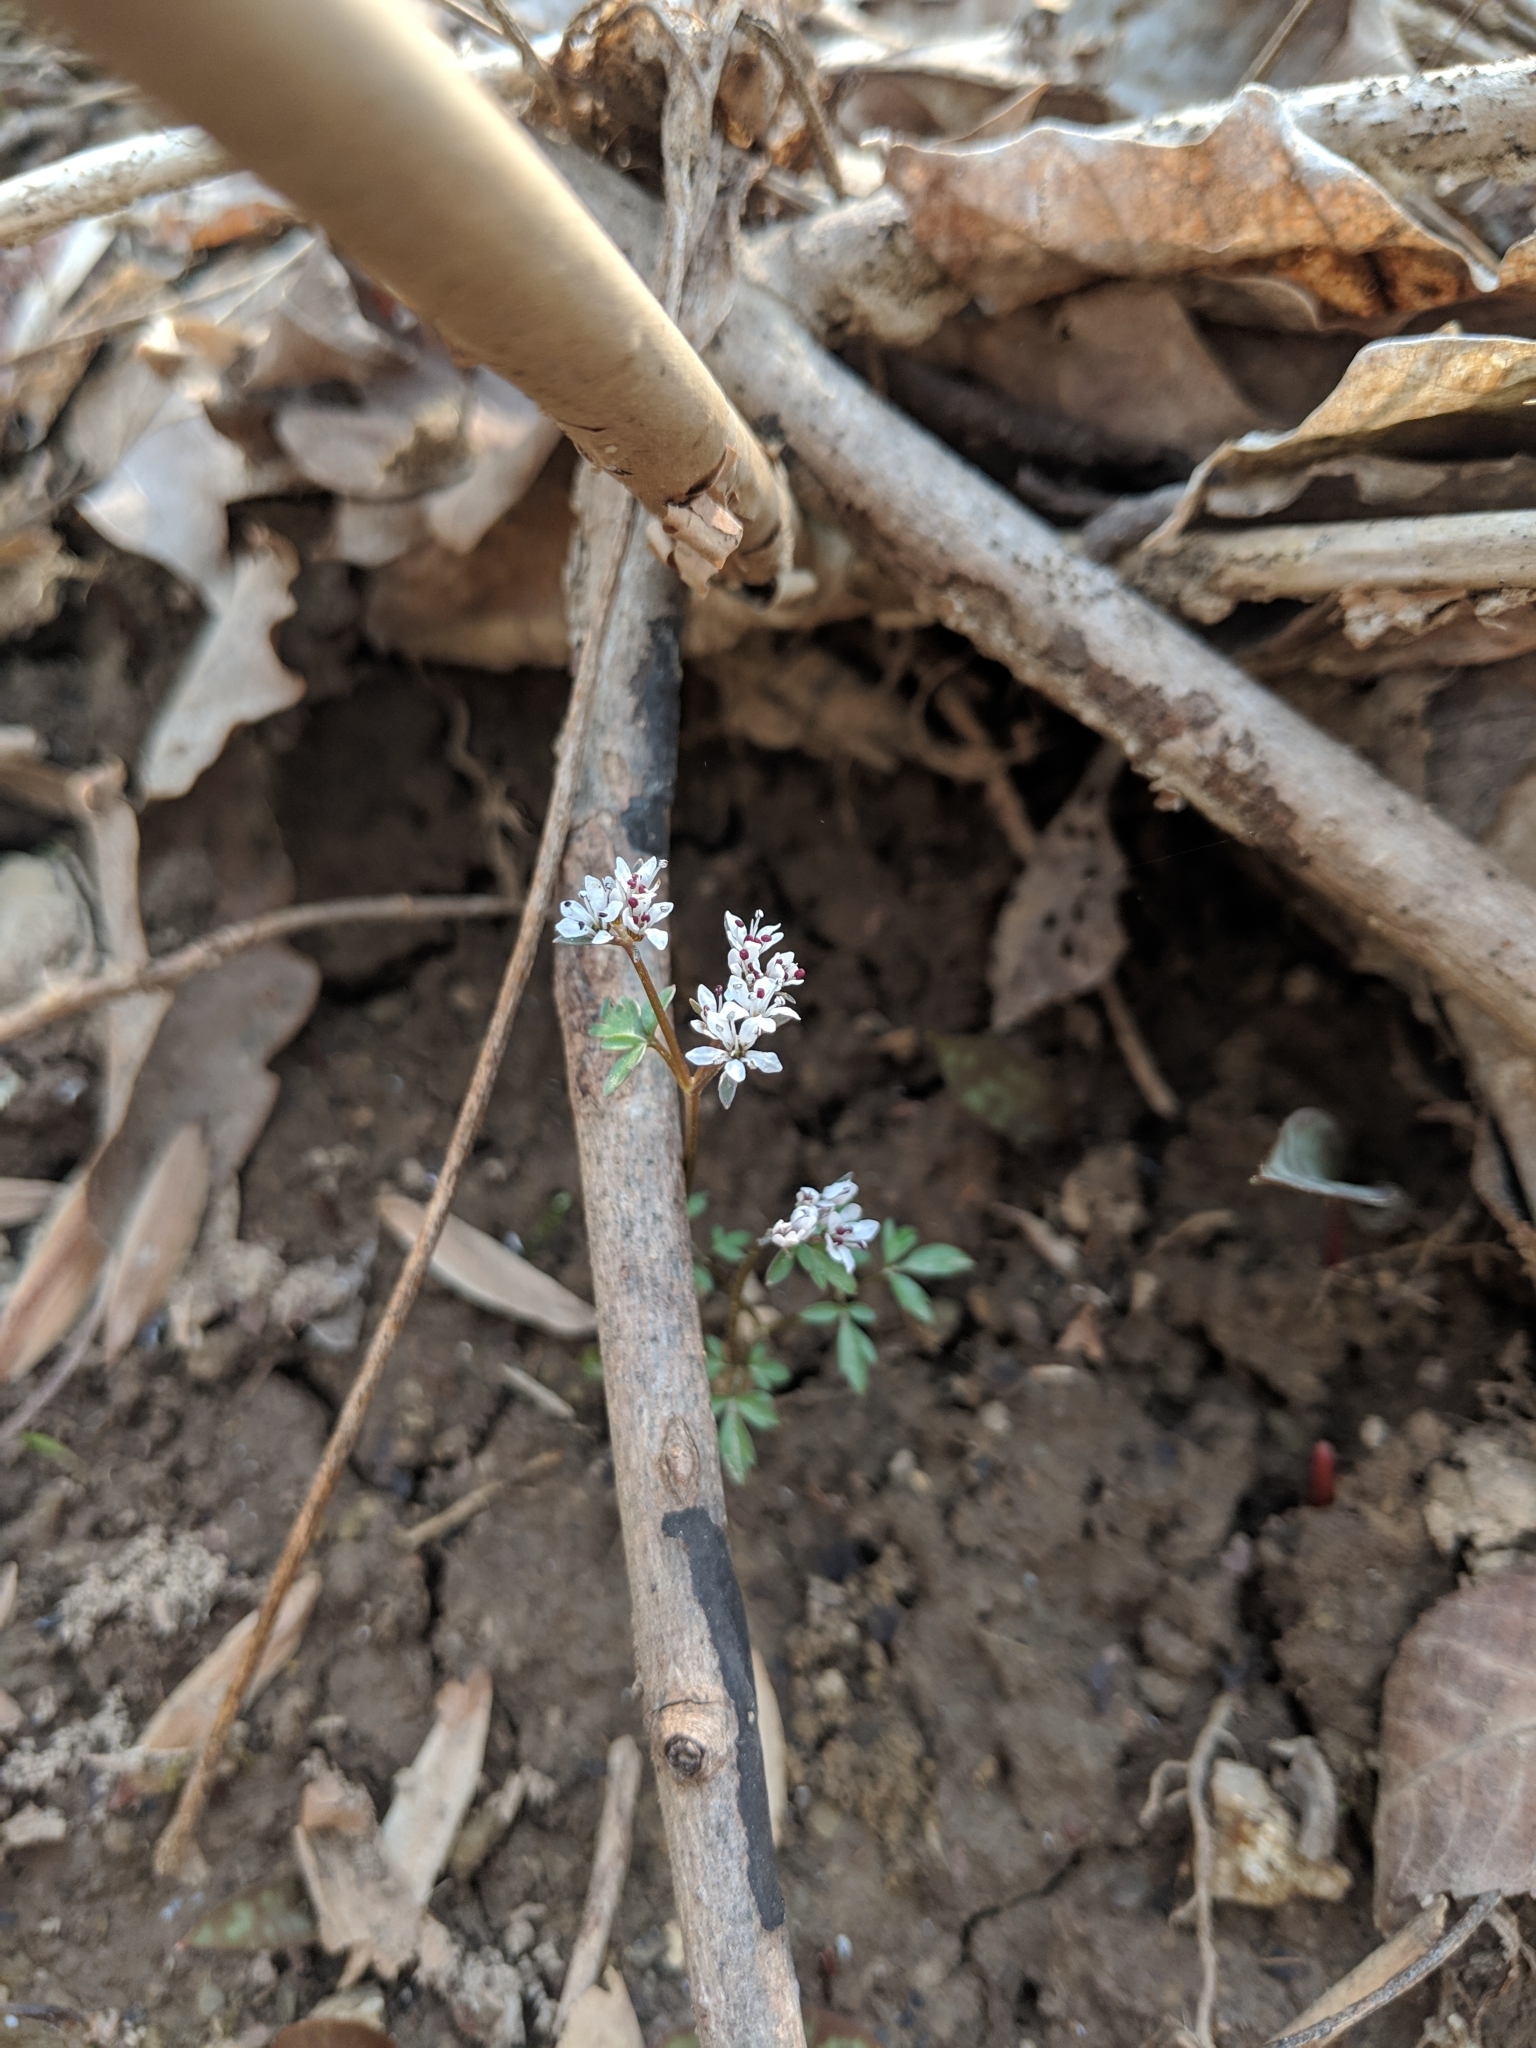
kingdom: Plantae
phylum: Tracheophyta
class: Magnoliopsida
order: Apiales
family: Apiaceae
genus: Erigenia
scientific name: Erigenia bulbosa
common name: Pepper-and-salt
